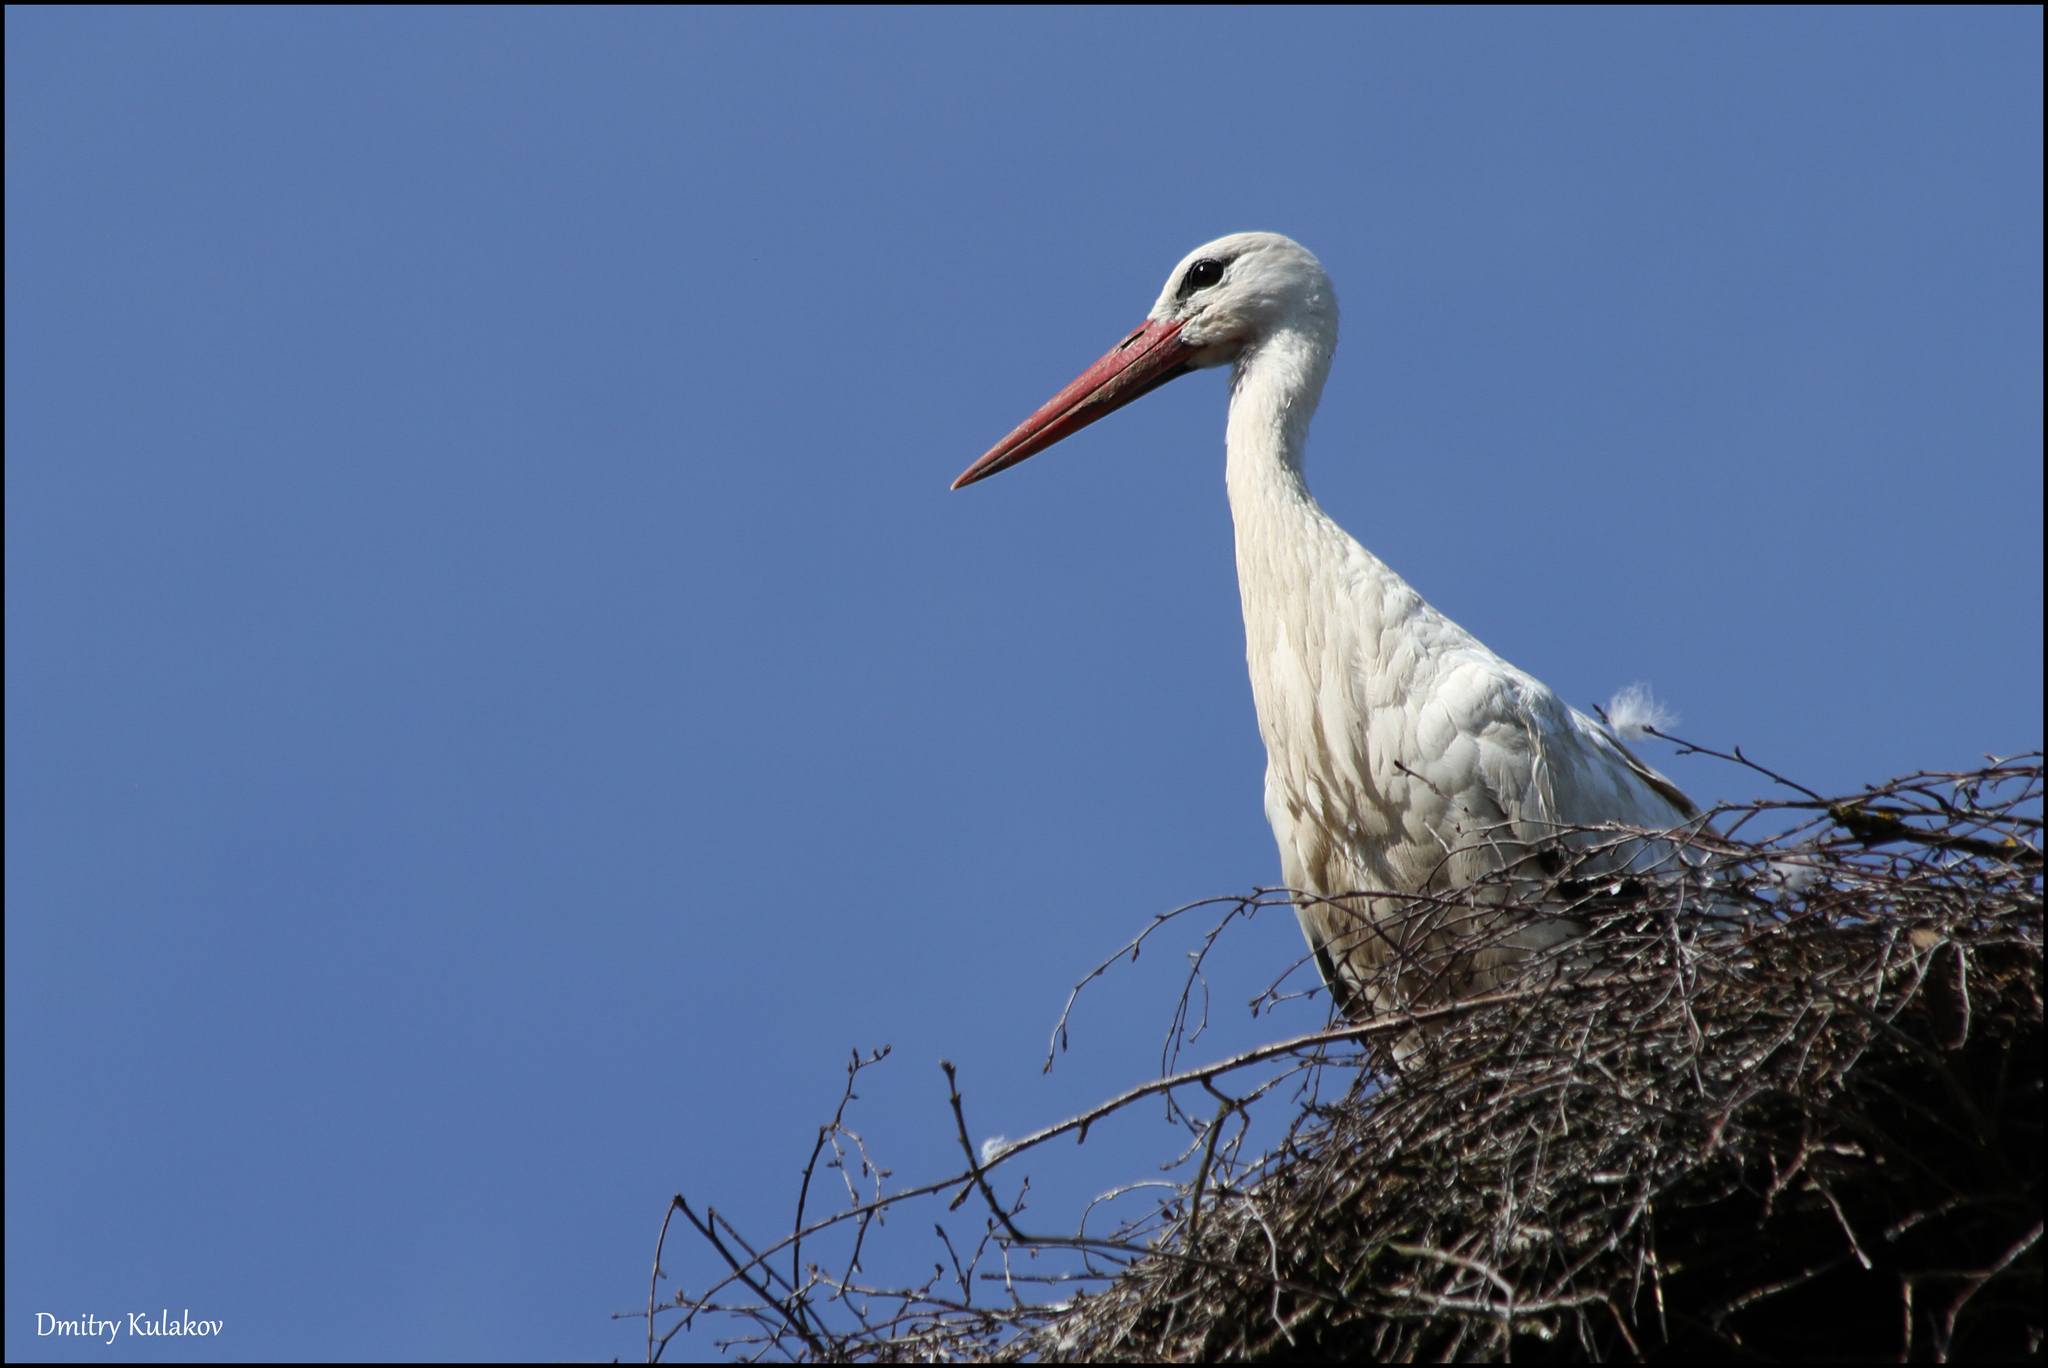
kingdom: Animalia
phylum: Chordata
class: Aves
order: Ciconiiformes
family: Ciconiidae
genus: Ciconia
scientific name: Ciconia ciconia
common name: White stork
